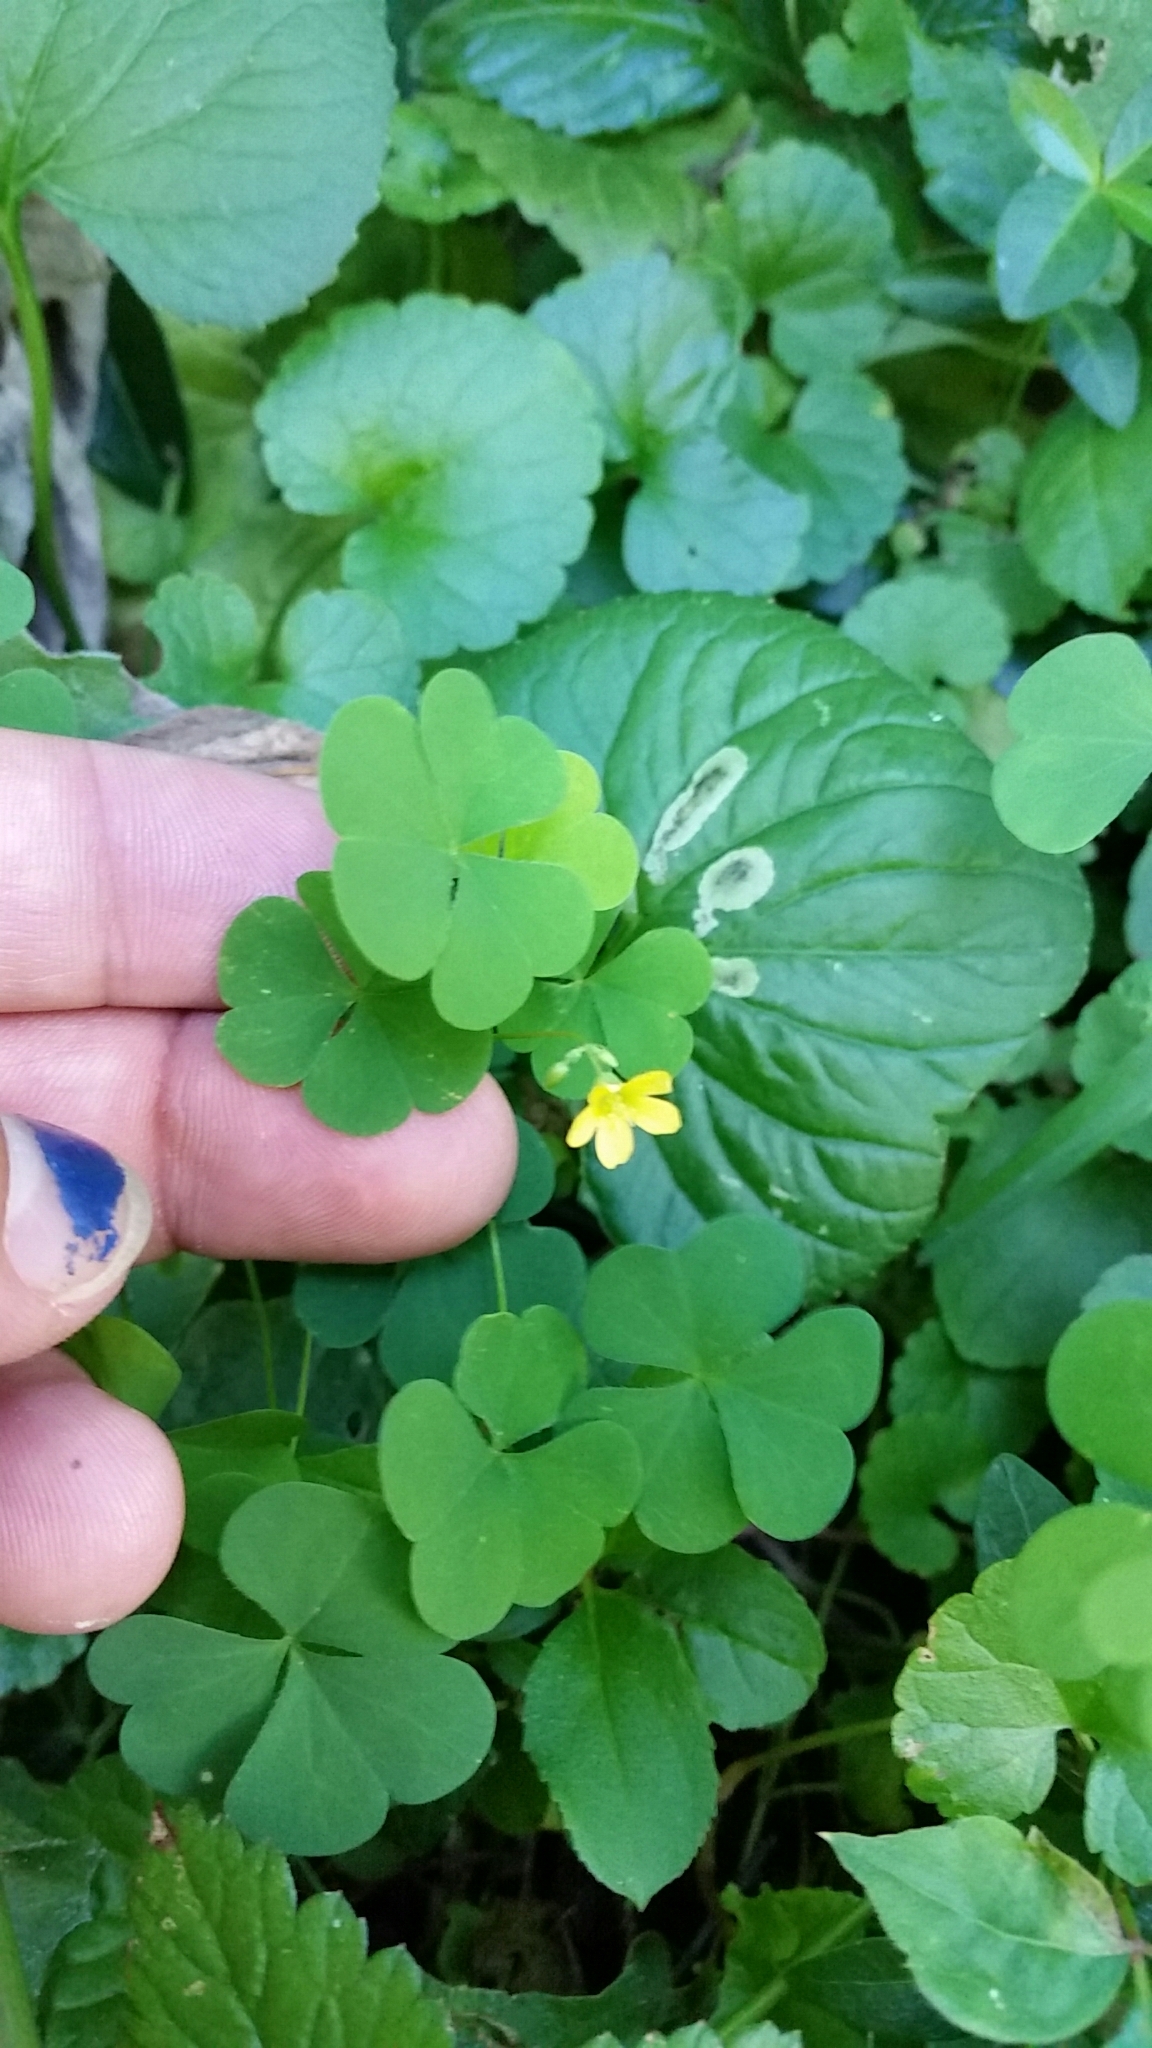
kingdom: Plantae
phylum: Tracheophyta
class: Magnoliopsida
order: Oxalidales
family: Oxalidaceae
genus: Oxalis
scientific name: Oxalis stricta
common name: Upright yellow-sorrel
